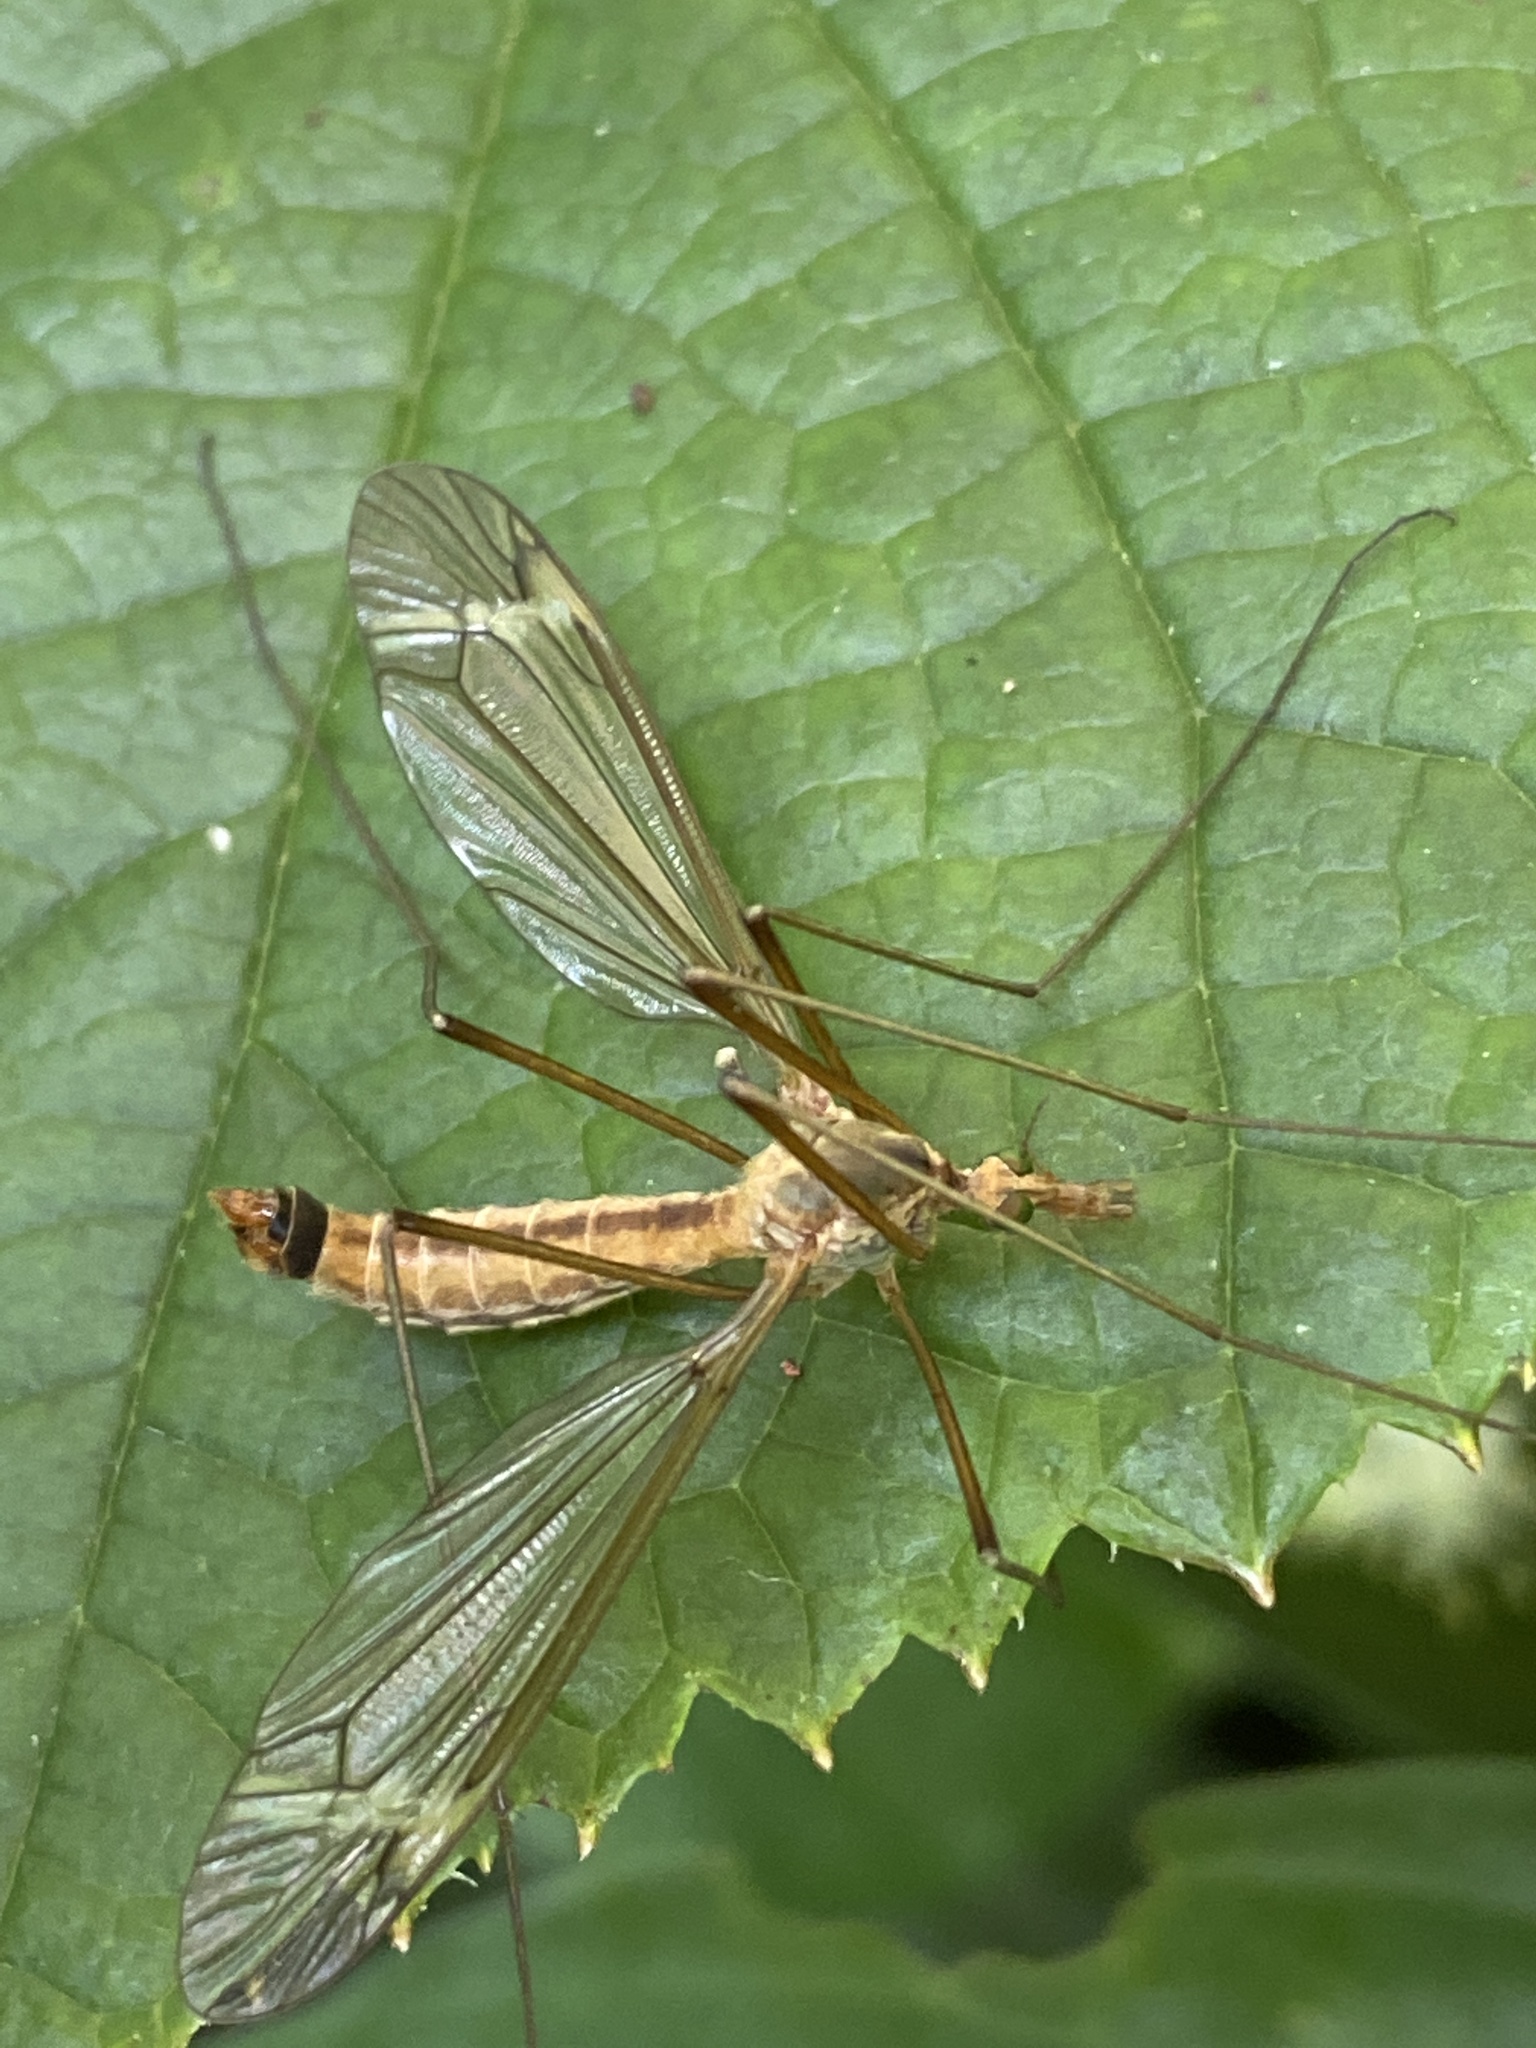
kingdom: Animalia
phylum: Arthropoda
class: Insecta
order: Diptera
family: Tipulidae
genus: Tipula
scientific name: Tipula fascipennis
